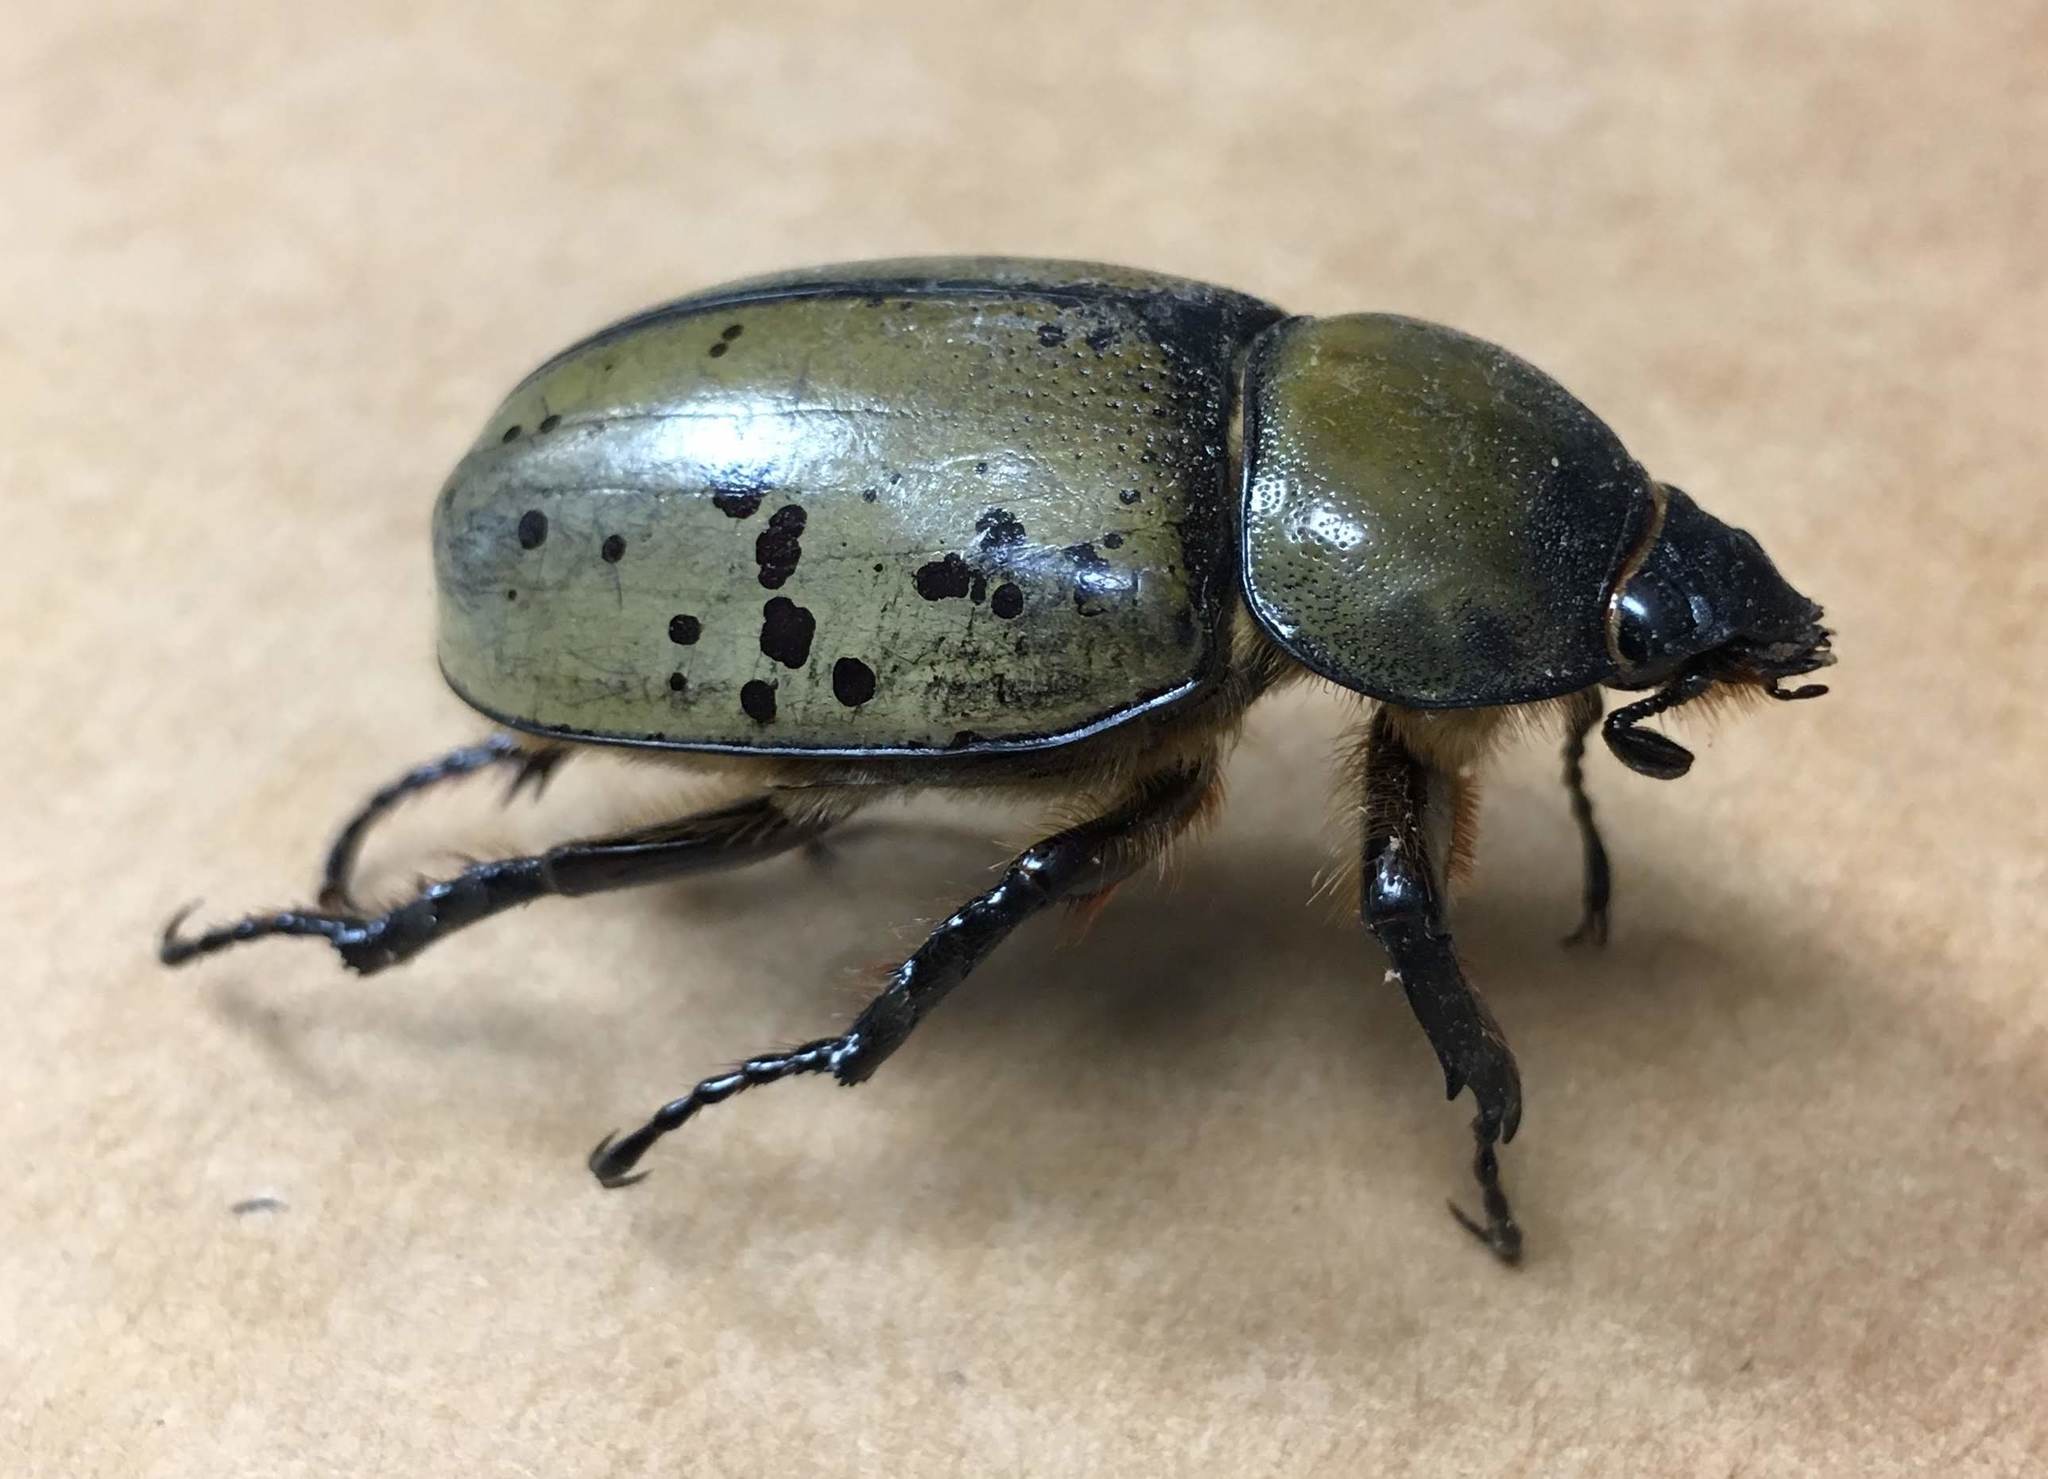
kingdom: Animalia
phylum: Arthropoda
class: Insecta
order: Coleoptera
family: Scarabaeidae
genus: Dynastes
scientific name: Dynastes tityus
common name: Eastern hercules beetle
